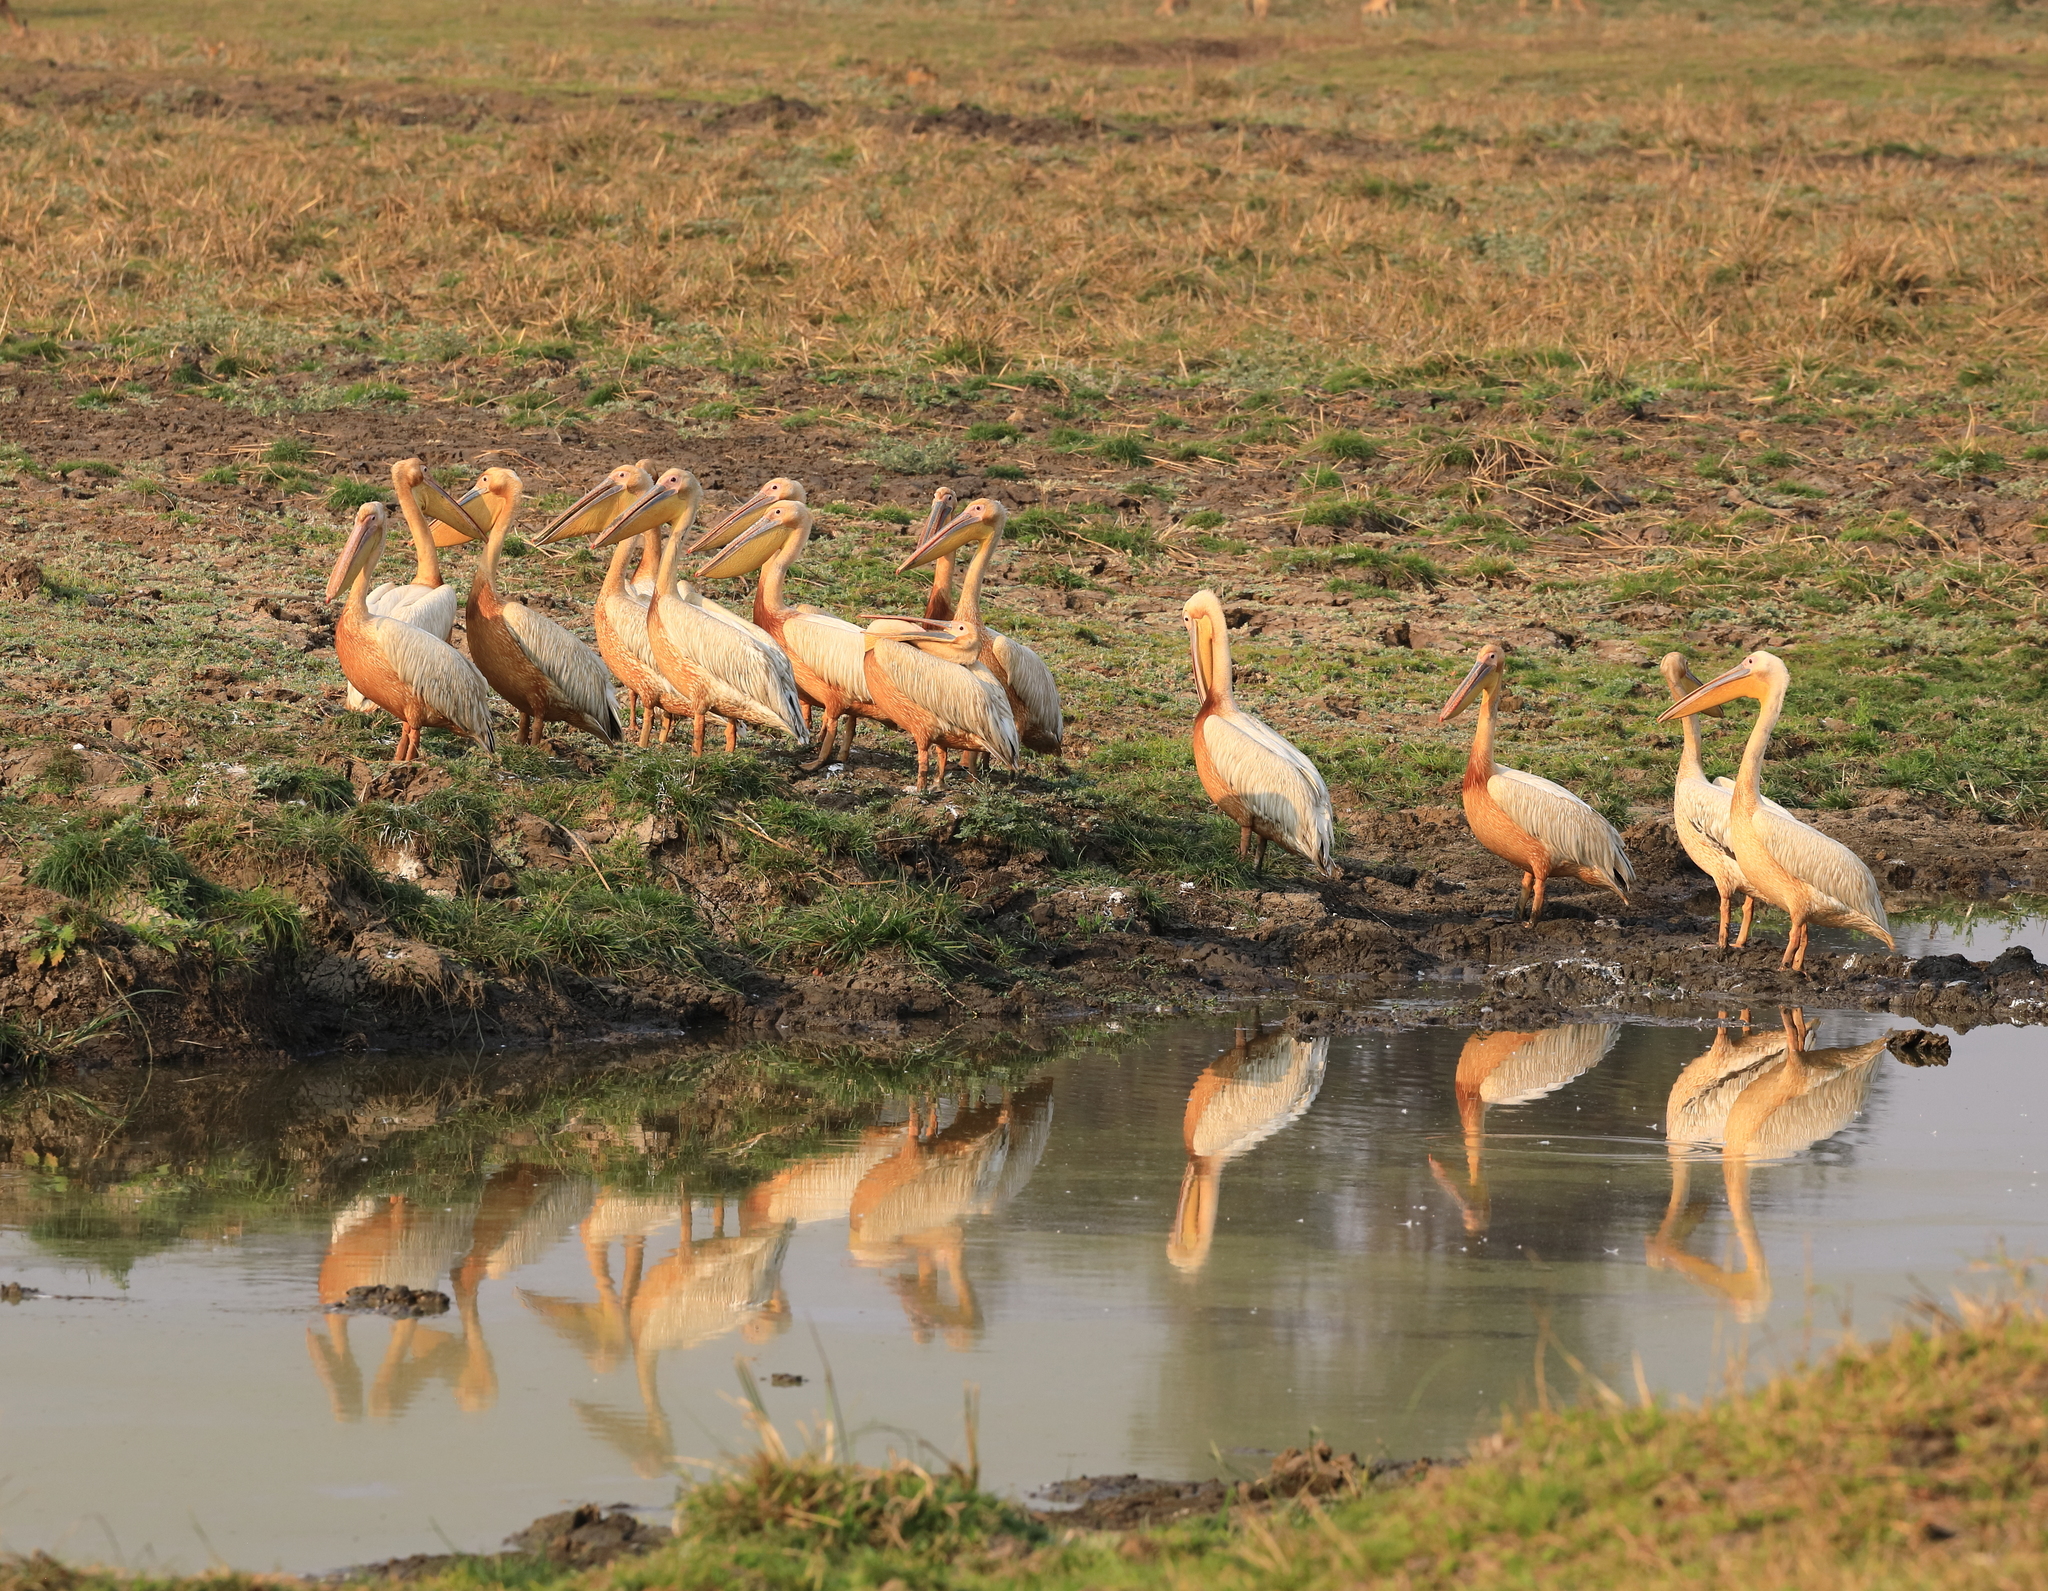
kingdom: Animalia
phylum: Chordata
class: Aves
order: Pelecaniformes
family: Pelecanidae
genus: Pelecanus
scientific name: Pelecanus onocrotalus
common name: Great white pelican
